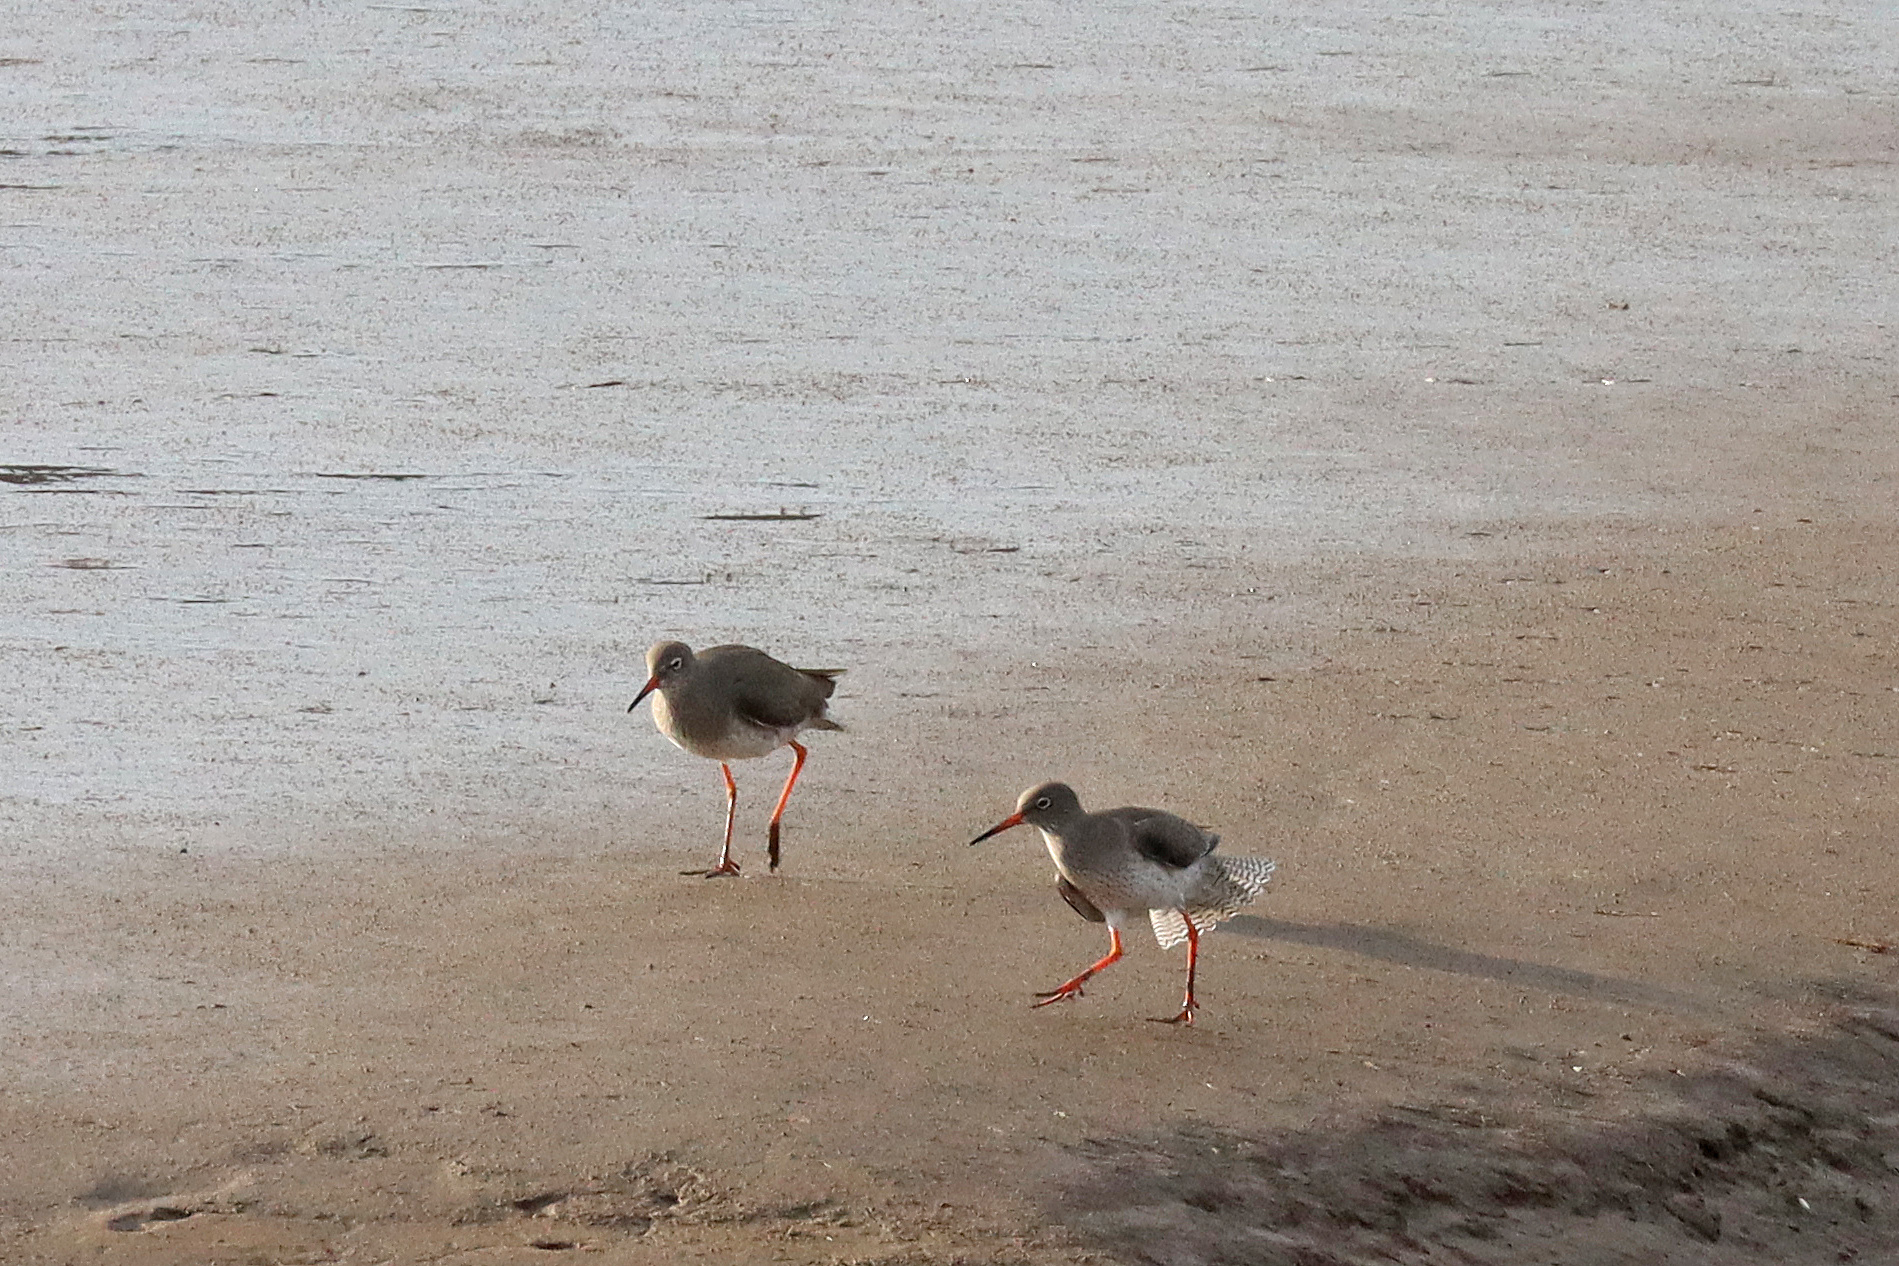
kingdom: Animalia
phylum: Chordata
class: Aves
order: Charadriiformes
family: Scolopacidae
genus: Tringa
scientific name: Tringa totanus
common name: Common redshank
